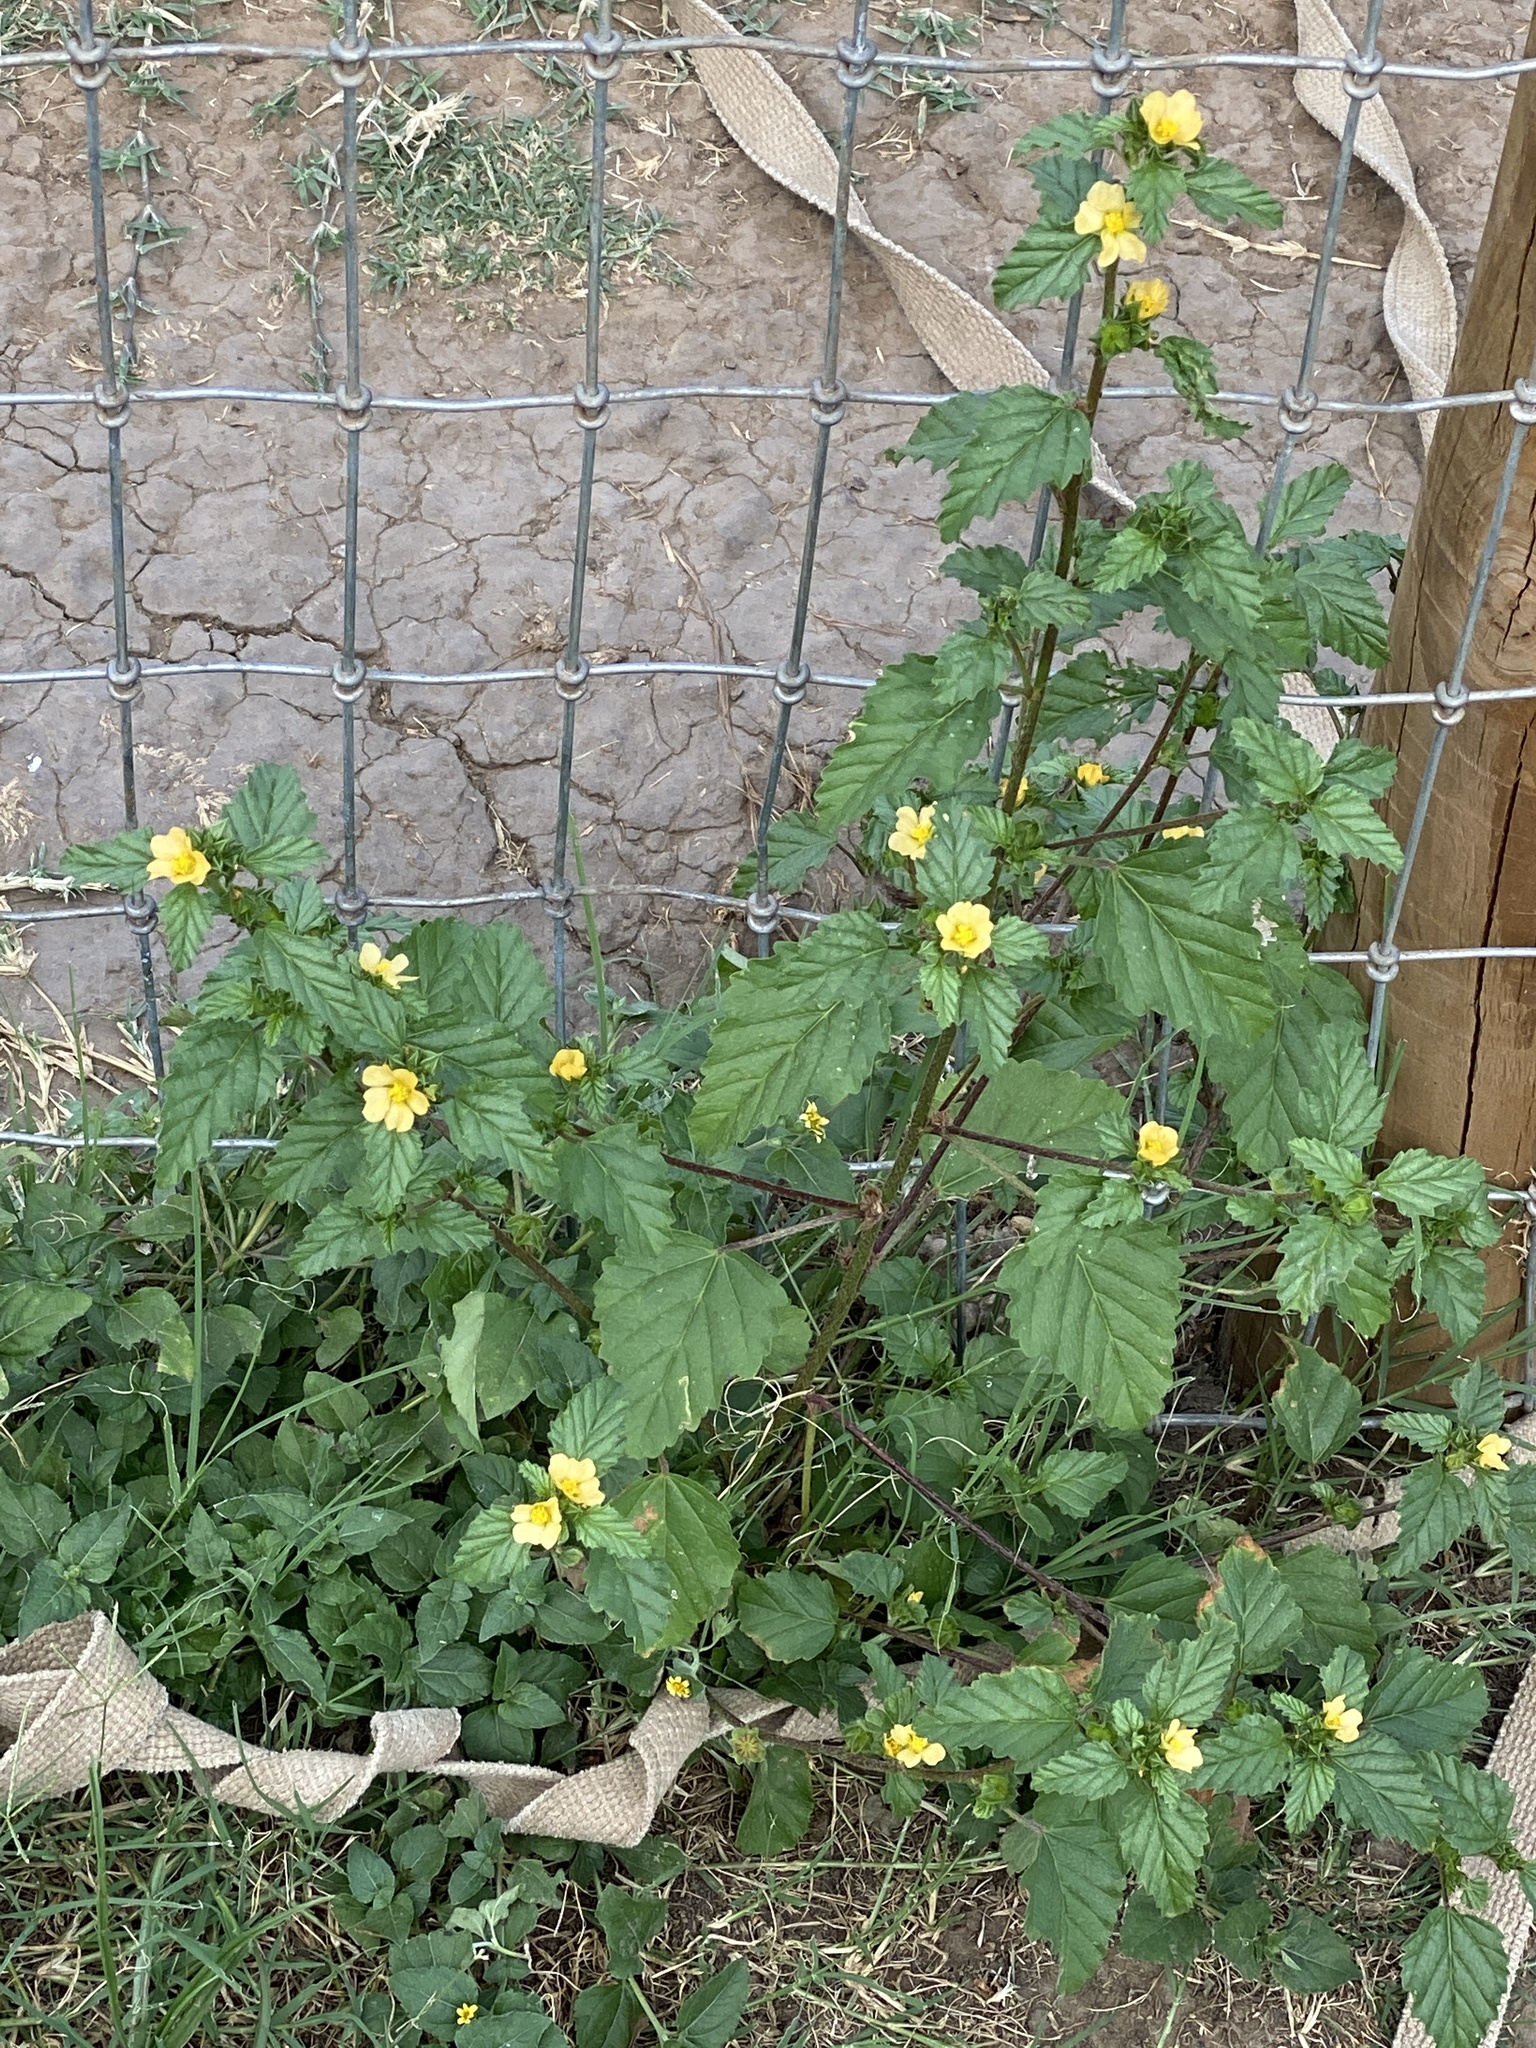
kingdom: Plantae
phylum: Tracheophyta
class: Magnoliopsida
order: Malvales
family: Malvaceae
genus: Malvastrum
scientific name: Malvastrum coromandelianum
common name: Threelobe false mallow
